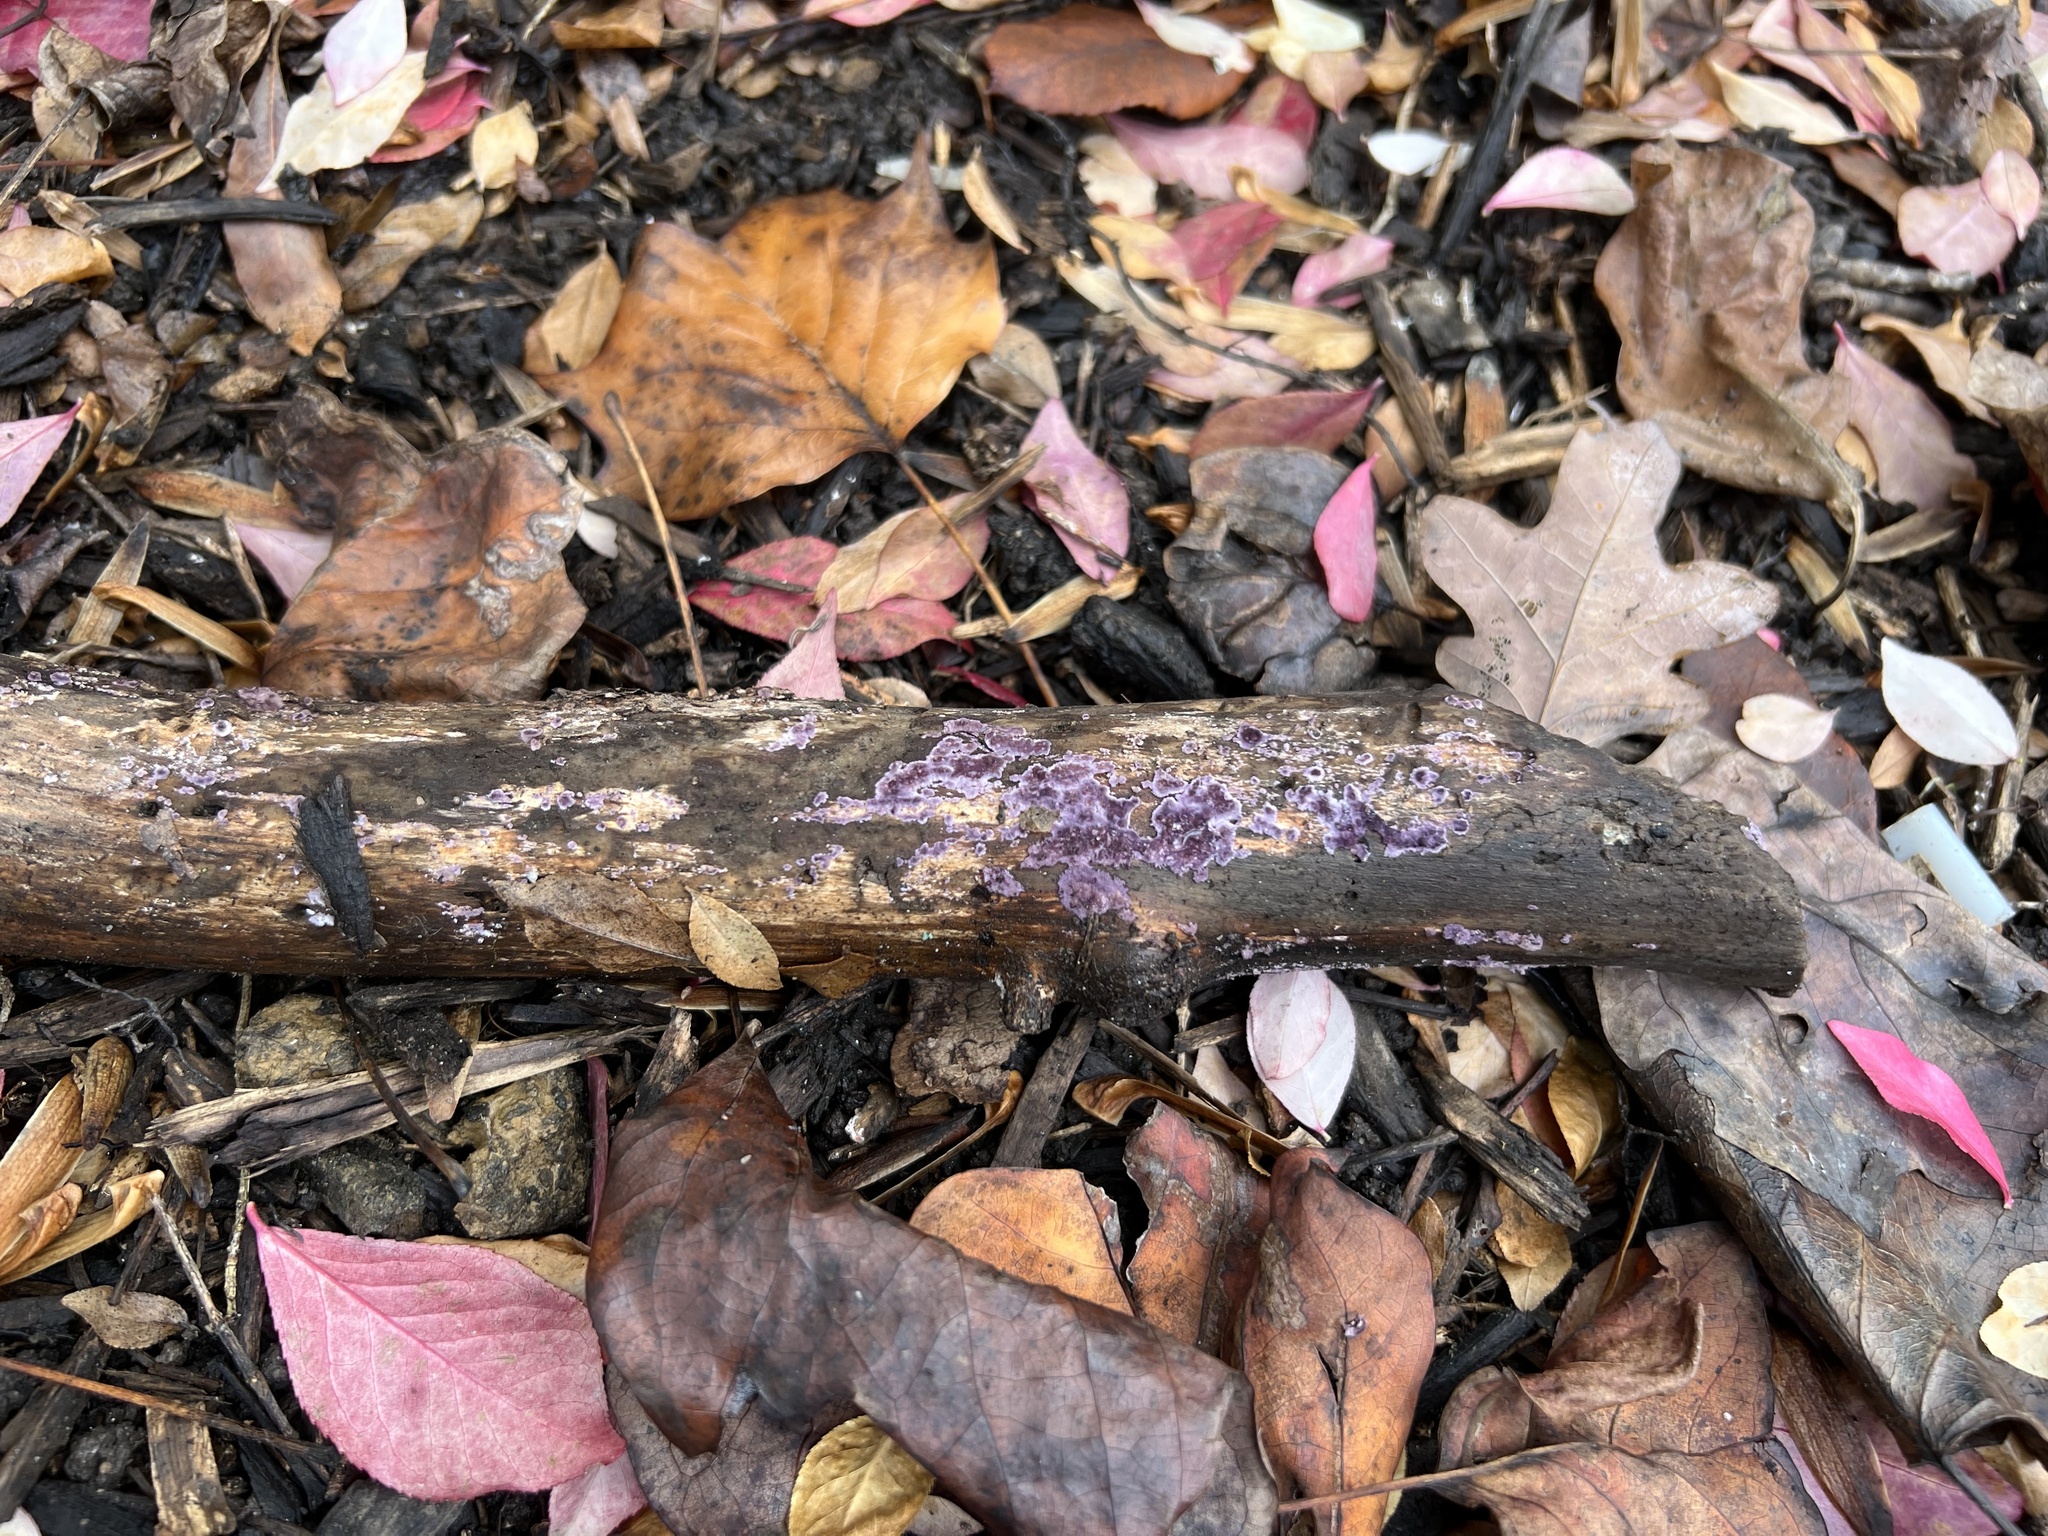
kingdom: Fungi
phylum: Basidiomycota
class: Agaricomycetes
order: Polyporales
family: Phanerochaetaceae
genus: Phlebiopsis
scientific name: Phlebiopsis crassa
